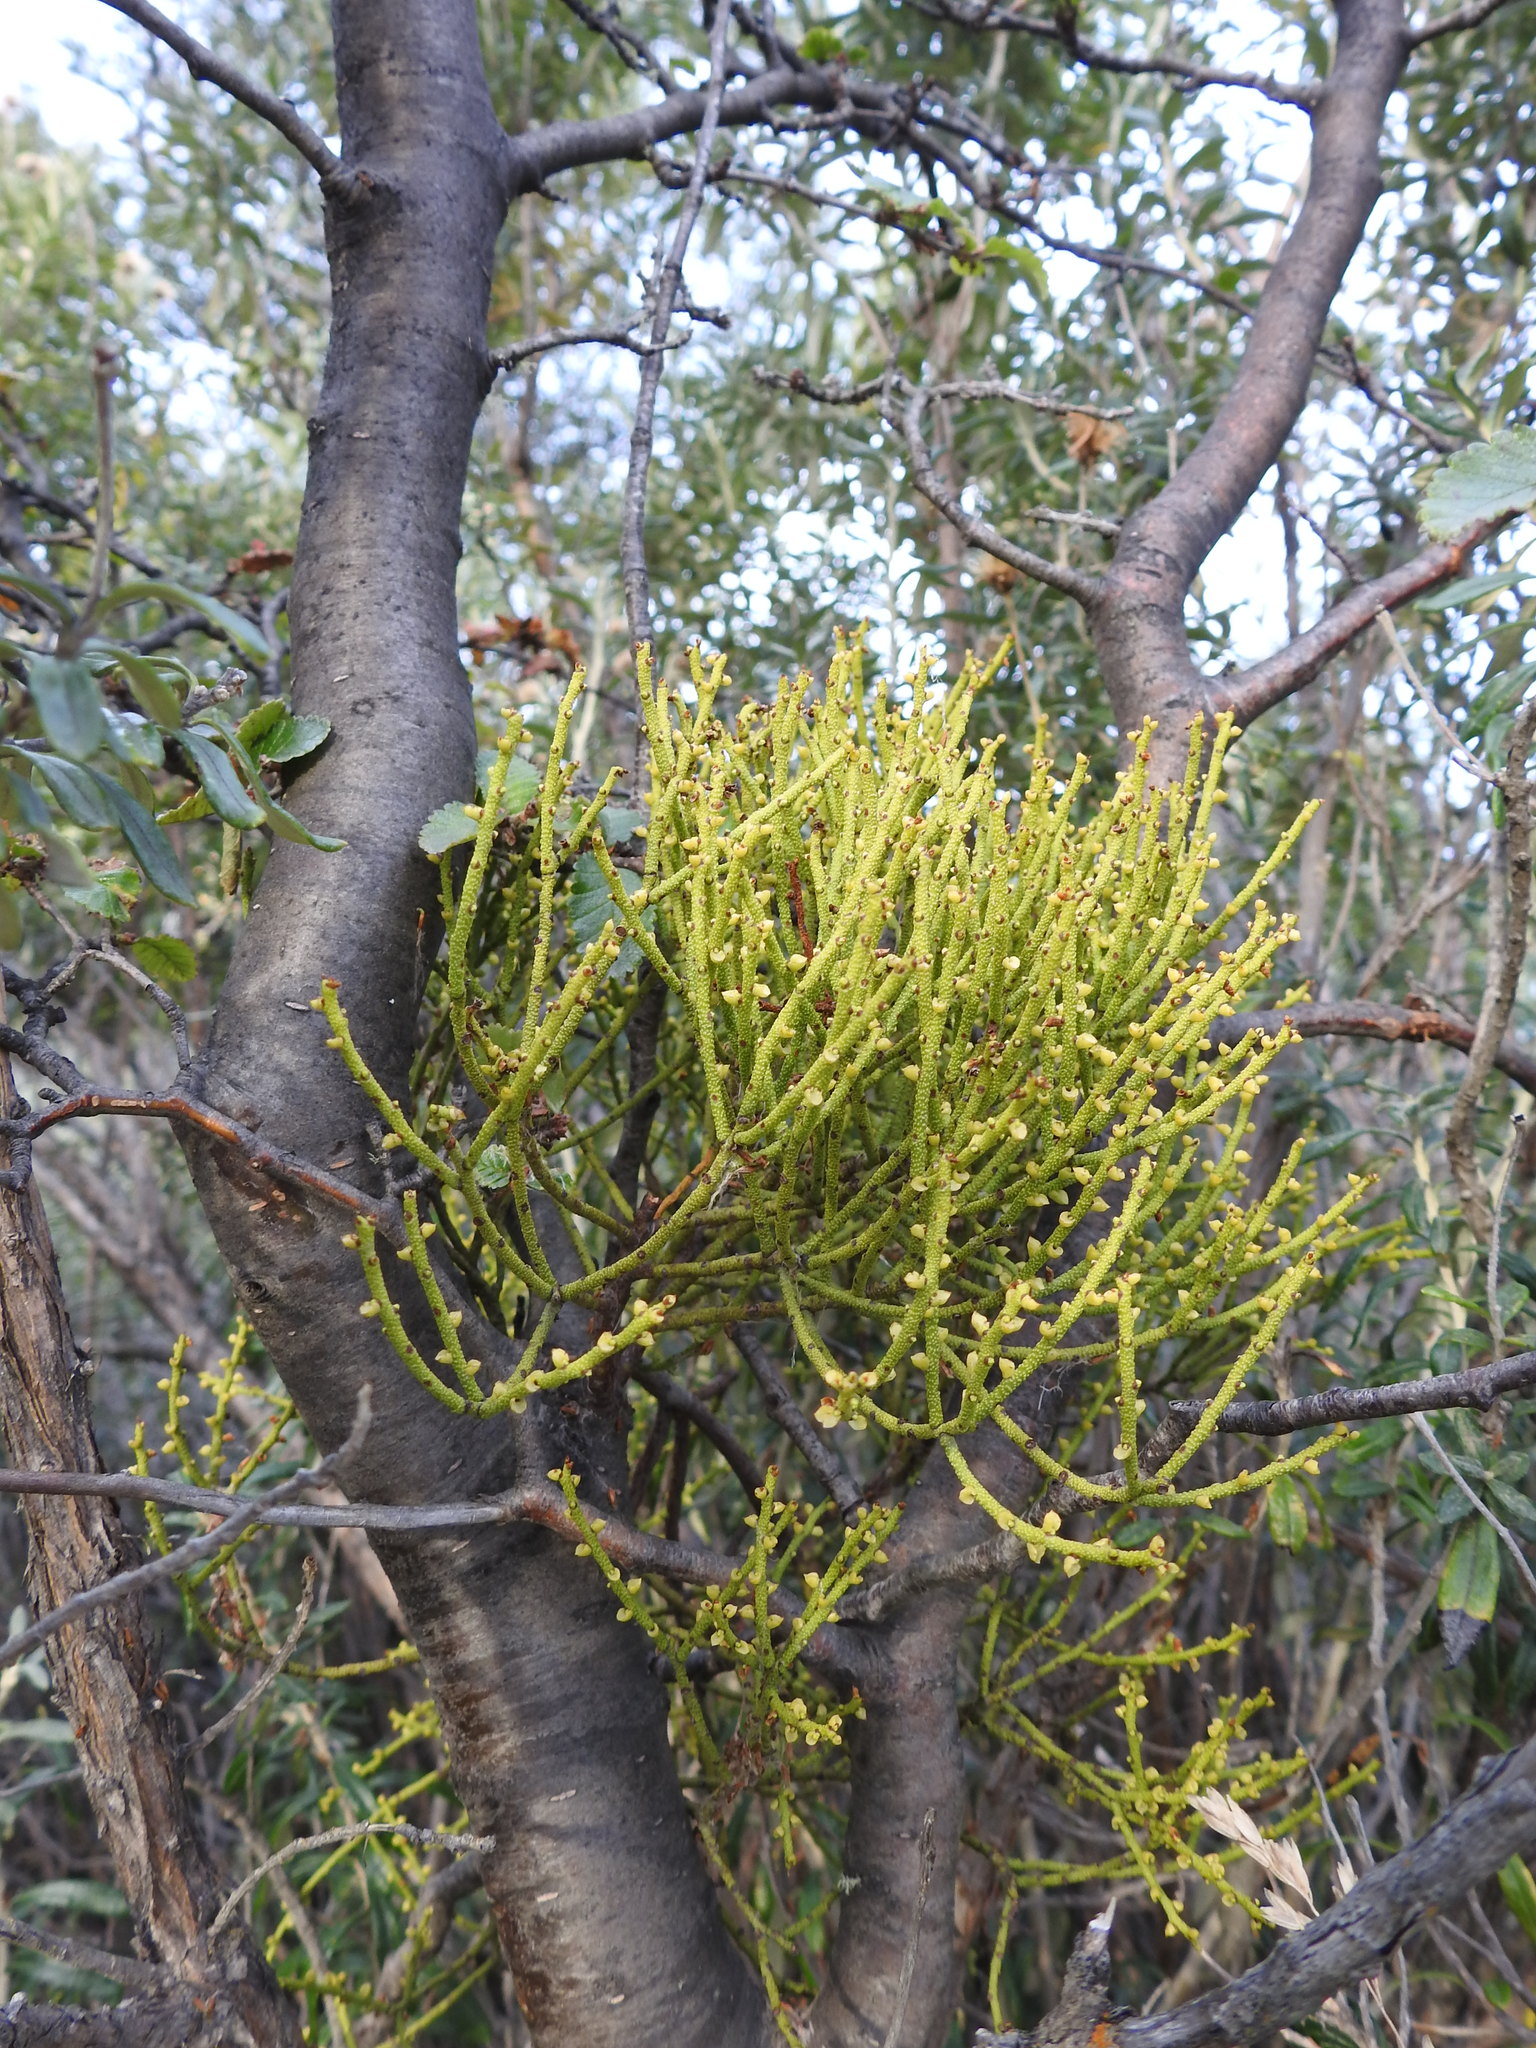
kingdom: Plantae
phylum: Tracheophyta
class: Magnoliopsida
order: Santalales
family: Misodendraceae
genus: Misodendrum
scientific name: Misodendrum punctulatum
